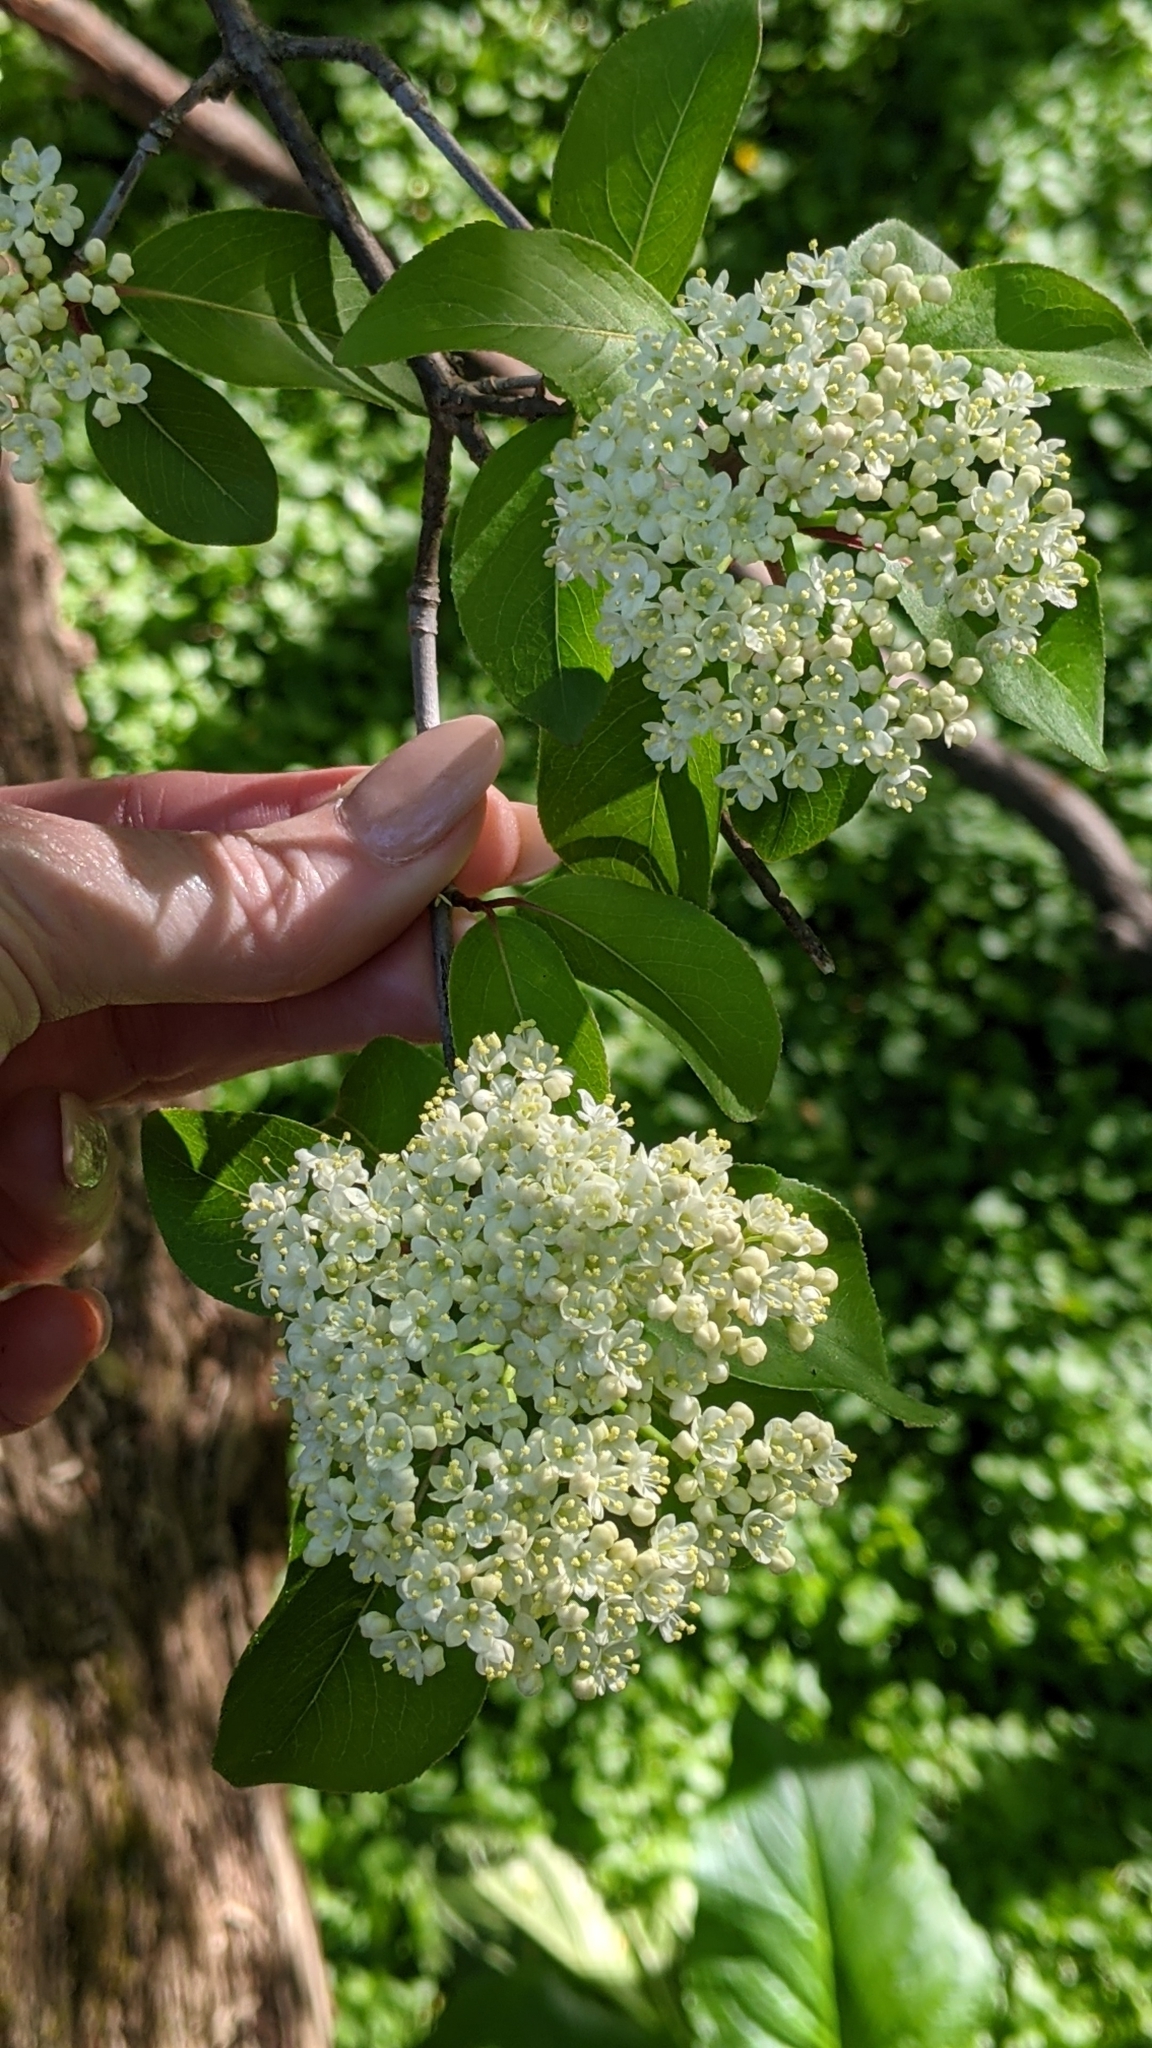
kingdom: Plantae
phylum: Tracheophyta
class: Magnoliopsida
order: Dipsacales
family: Viburnaceae
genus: Viburnum
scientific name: Viburnum prunifolium
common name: Black haw
